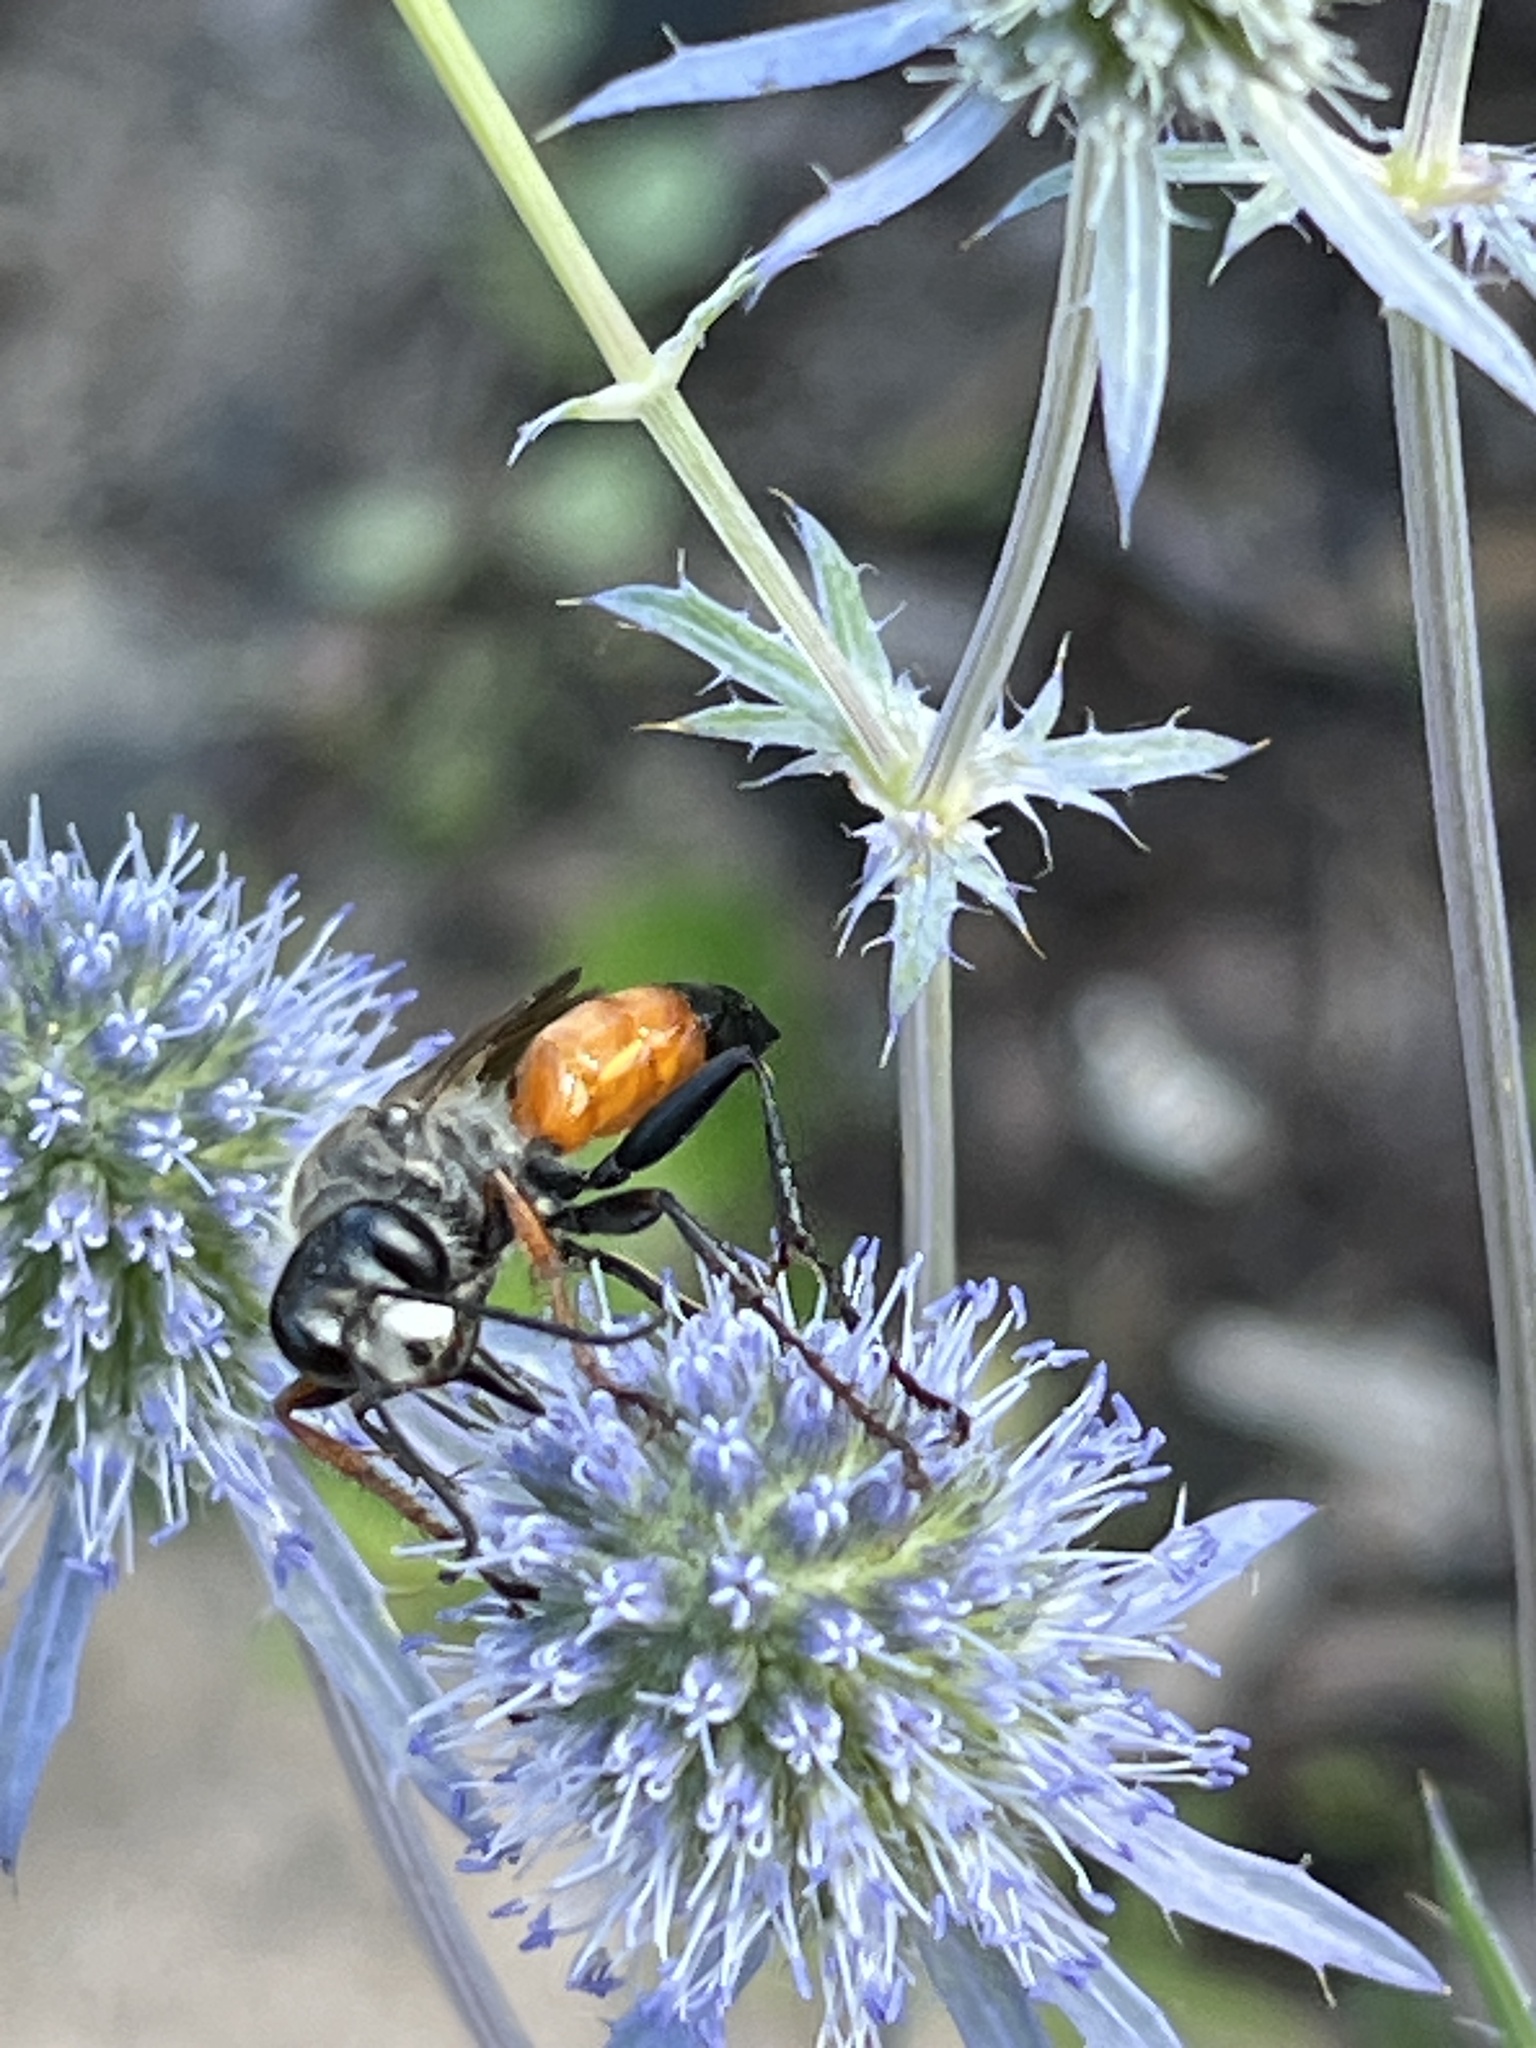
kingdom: Animalia
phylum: Arthropoda
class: Insecta
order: Hymenoptera
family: Sphecidae
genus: Sphex
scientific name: Sphex funerarius
